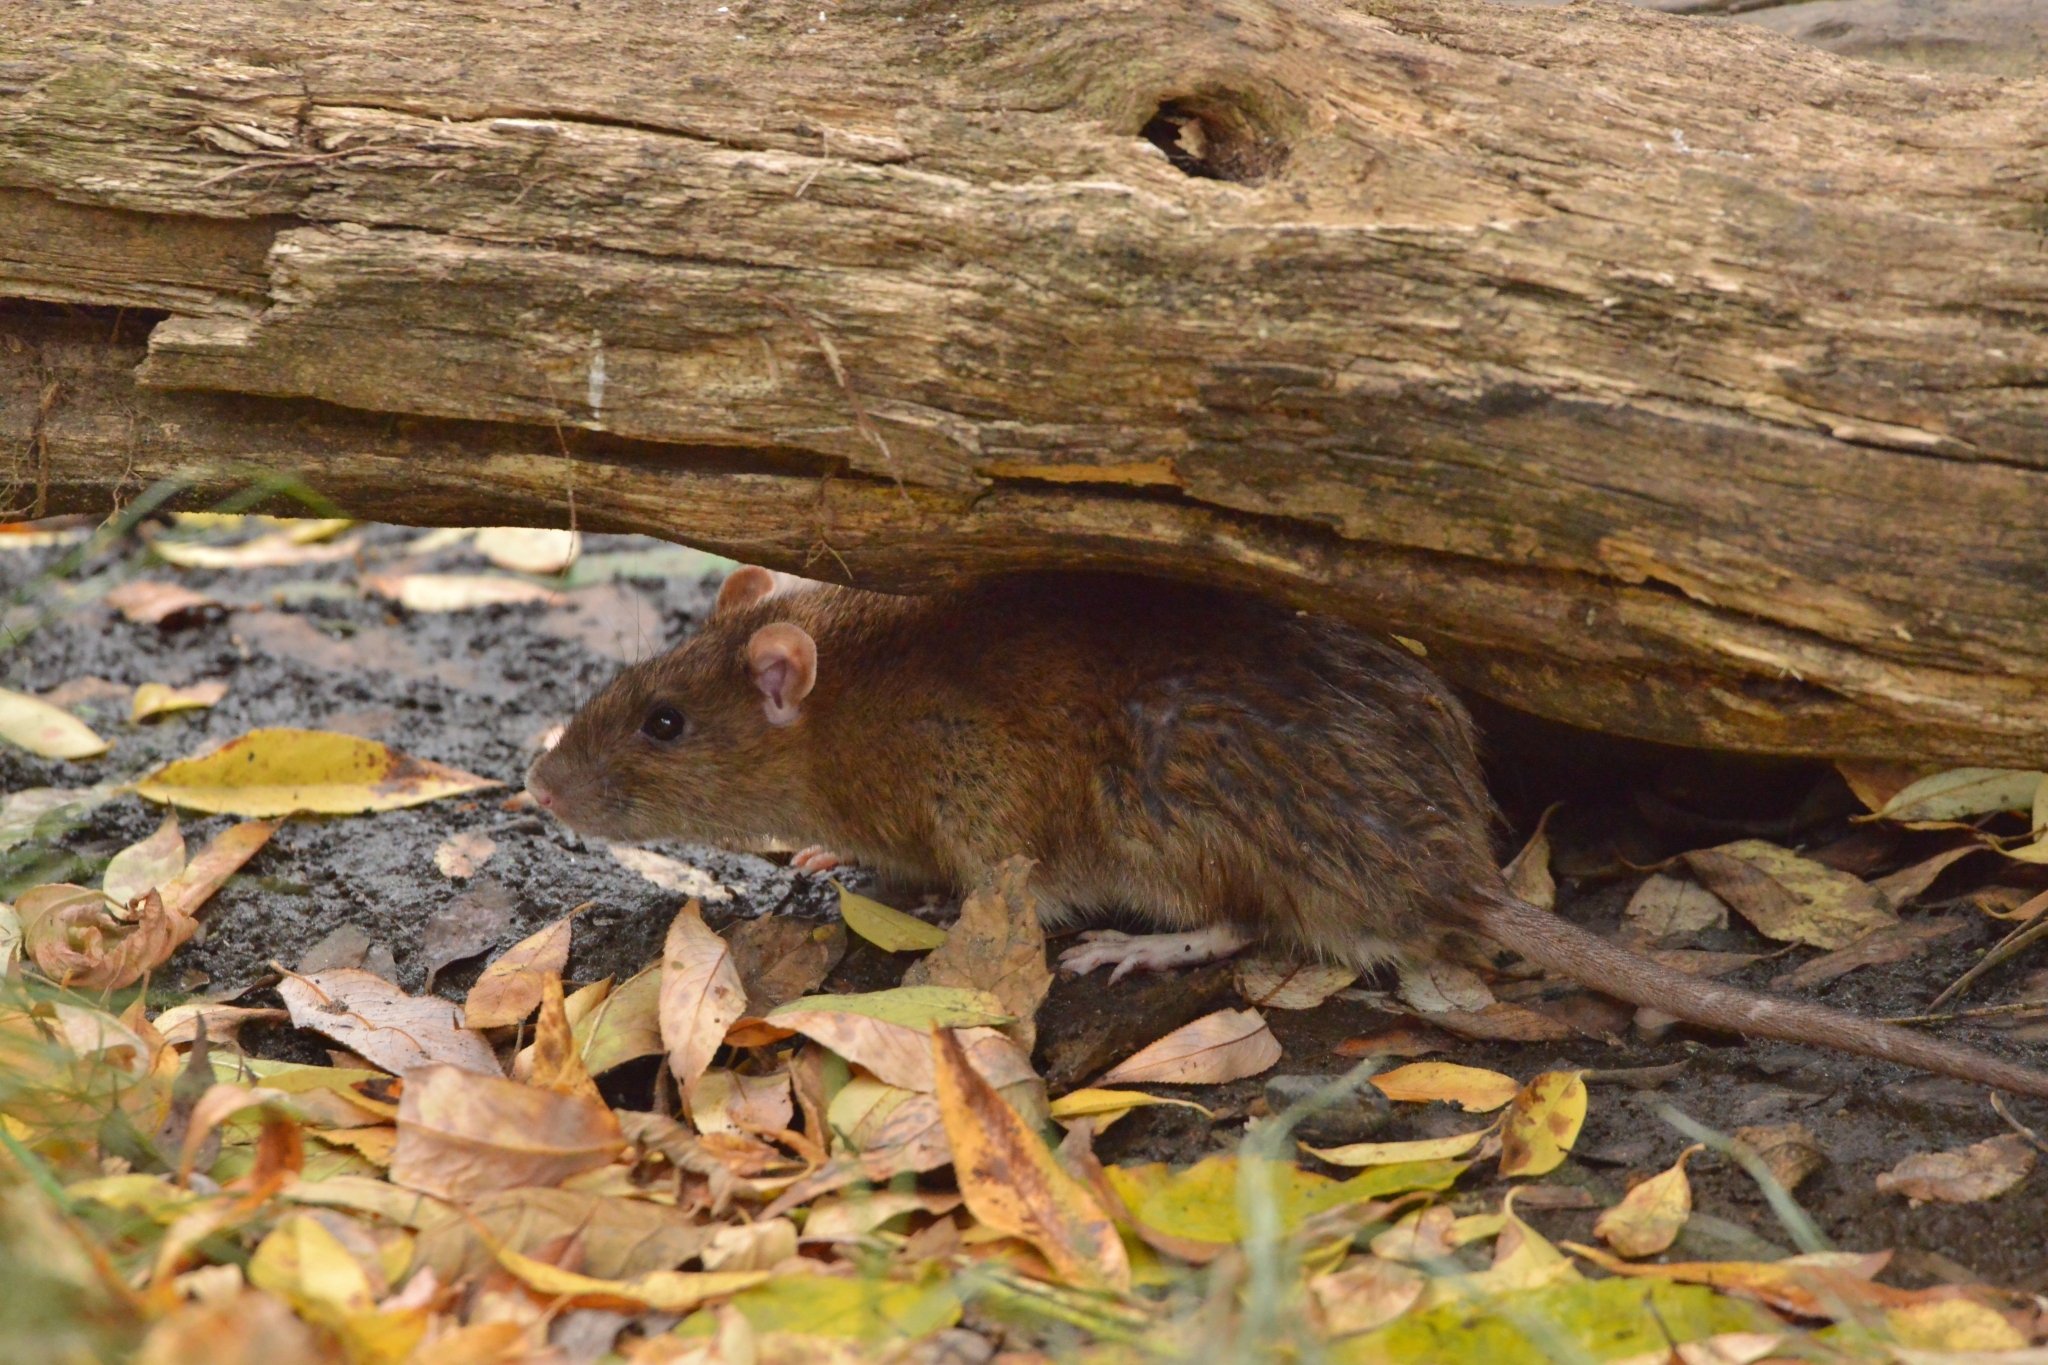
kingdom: Animalia
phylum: Chordata
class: Mammalia
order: Rodentia
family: Muridae
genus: Rattus
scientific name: Rattus norvegicus
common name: Brown rat
